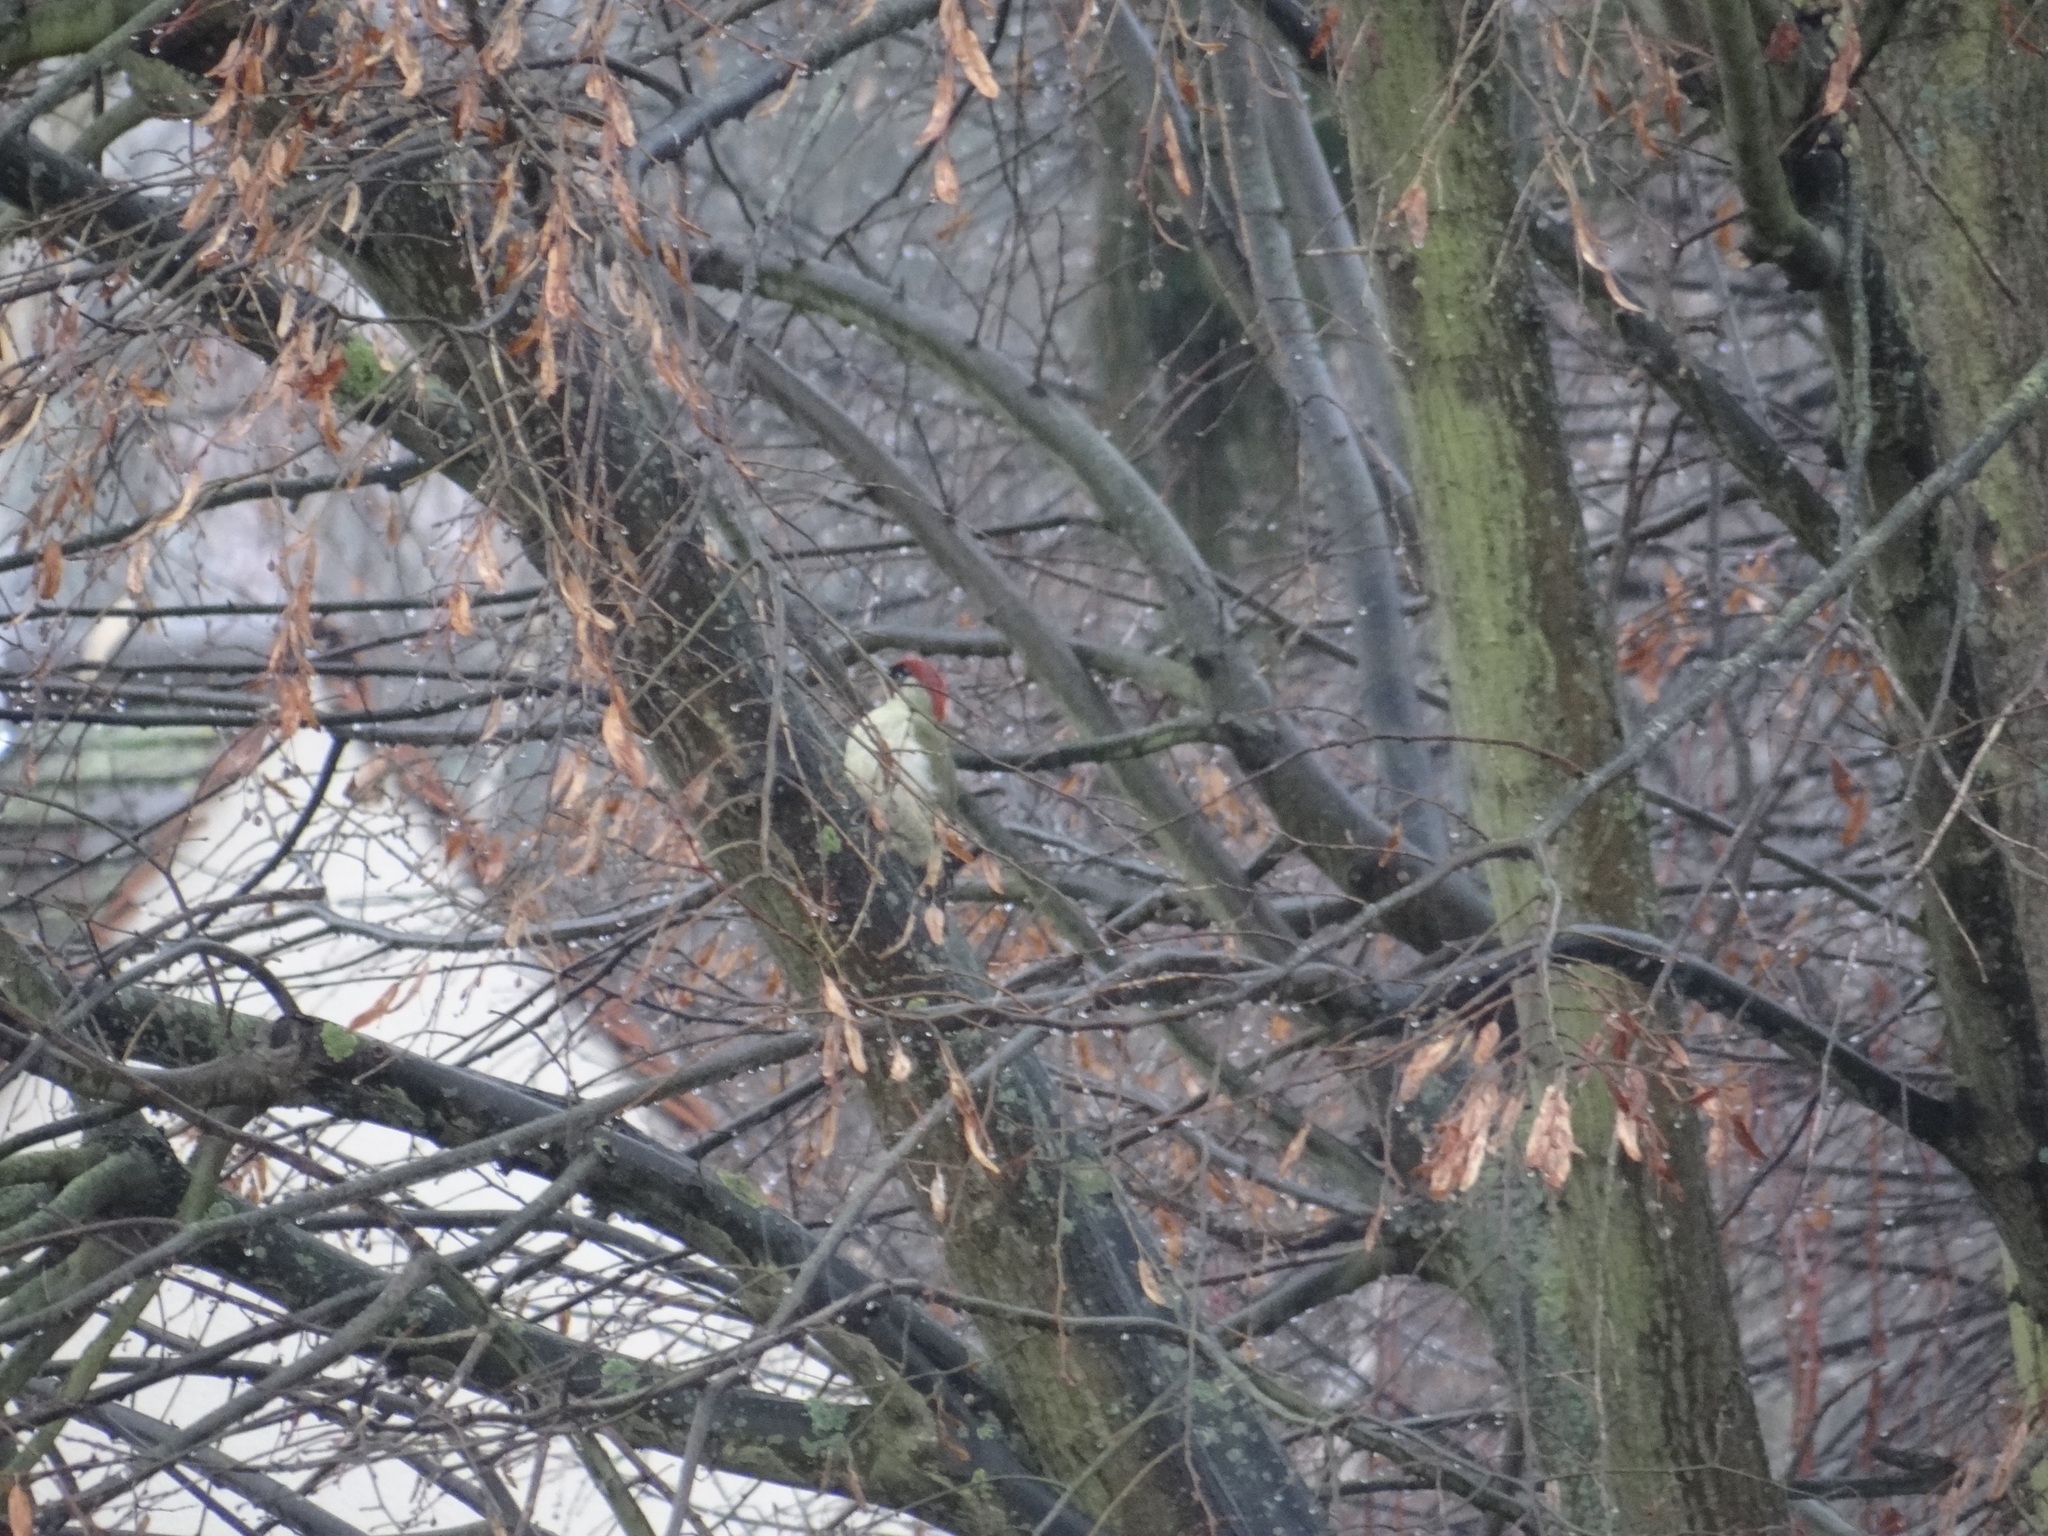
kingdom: Animalia
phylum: Chordata
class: Aves
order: Piciformes
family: Picidae
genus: Picus
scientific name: Picus viridis
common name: European green woodpecker
